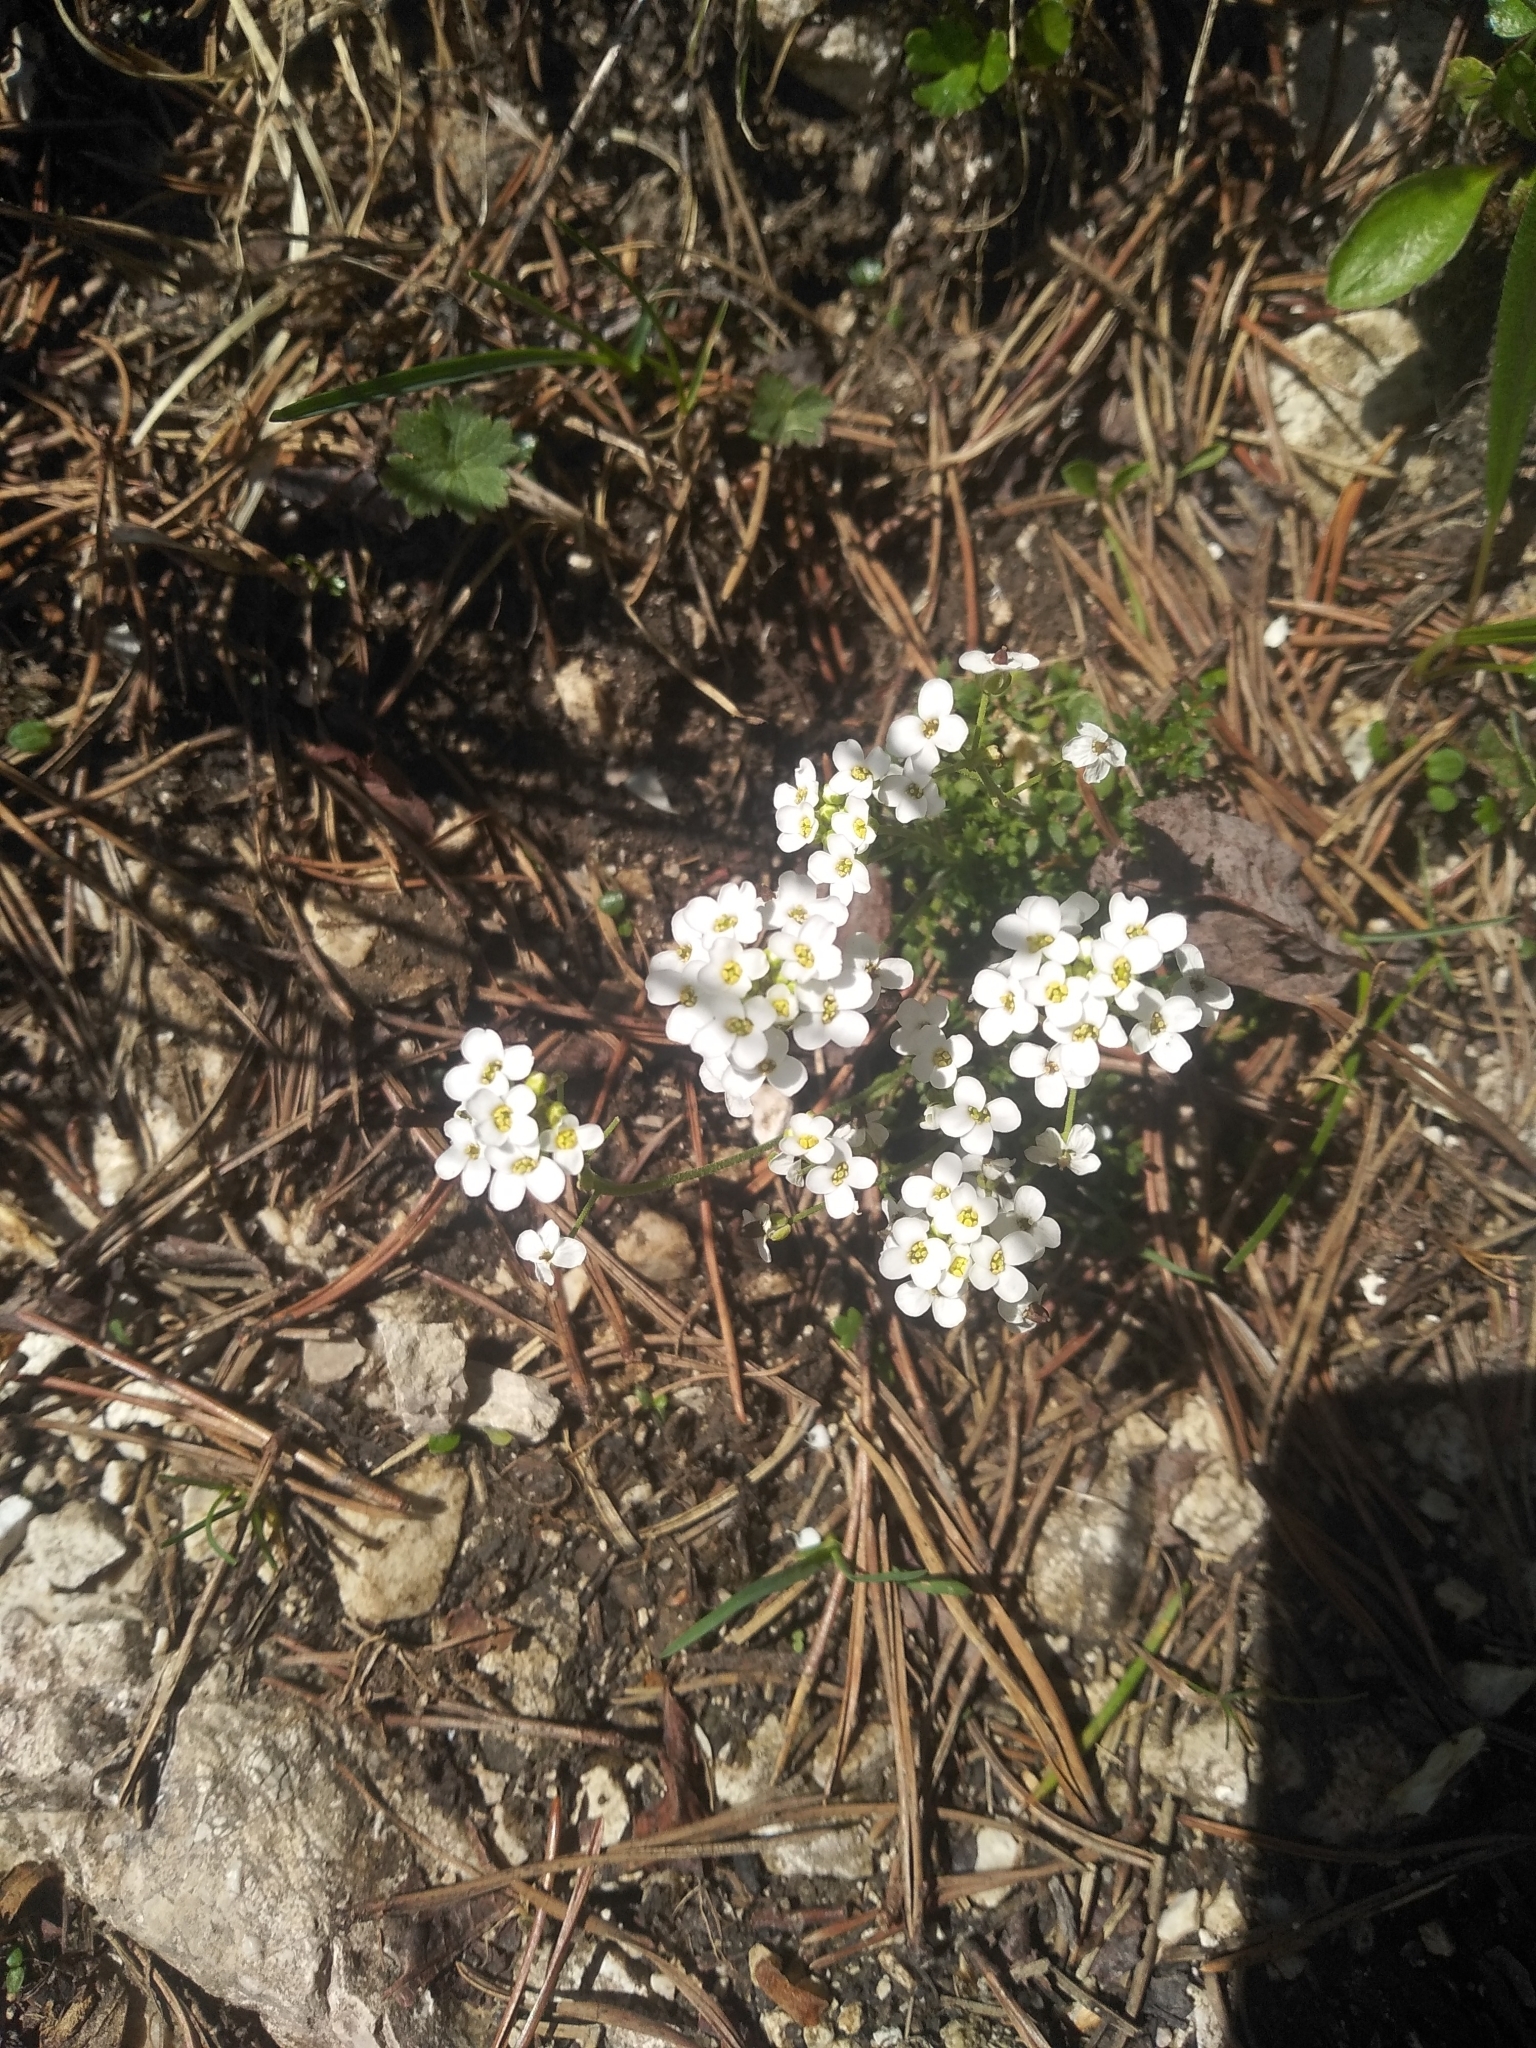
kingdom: Plantae
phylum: Tracheophyta
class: Magnoliopsida
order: Brassicales
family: Brassicaceae
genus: Hornungia
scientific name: Hornungia alpina
